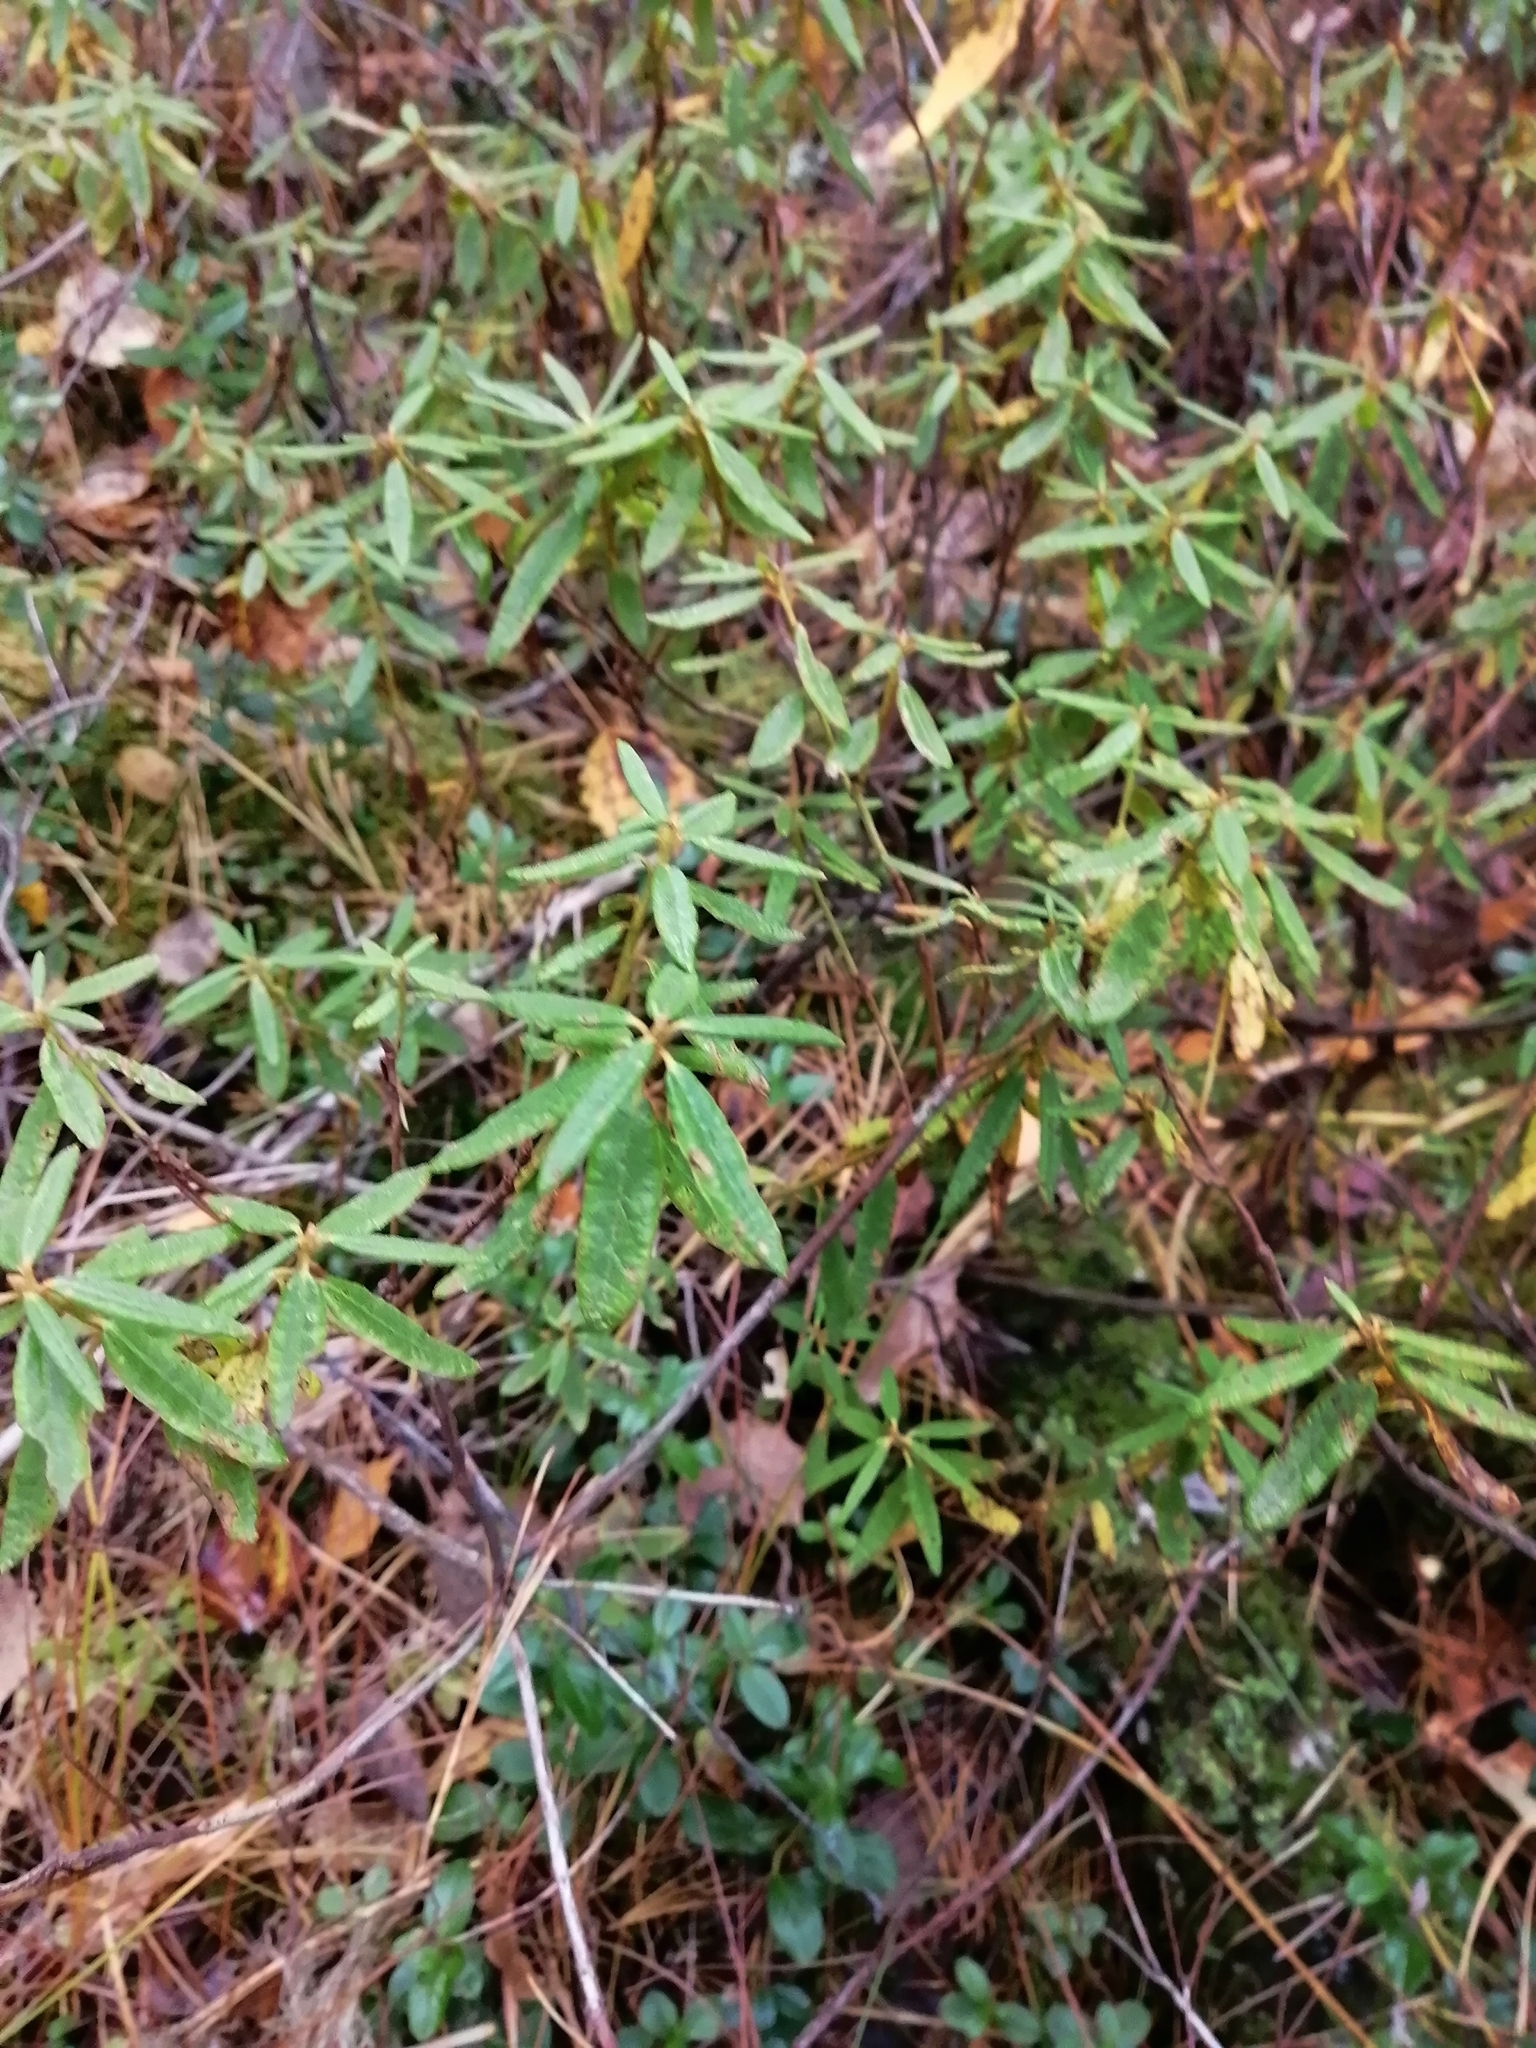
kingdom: Plantae
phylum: Tracheophyta
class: Magnoliopsida
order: Ericales
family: Ericaceae
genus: Rhododendron
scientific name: Rhododendron tomentosum
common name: Marsh labrador tea
